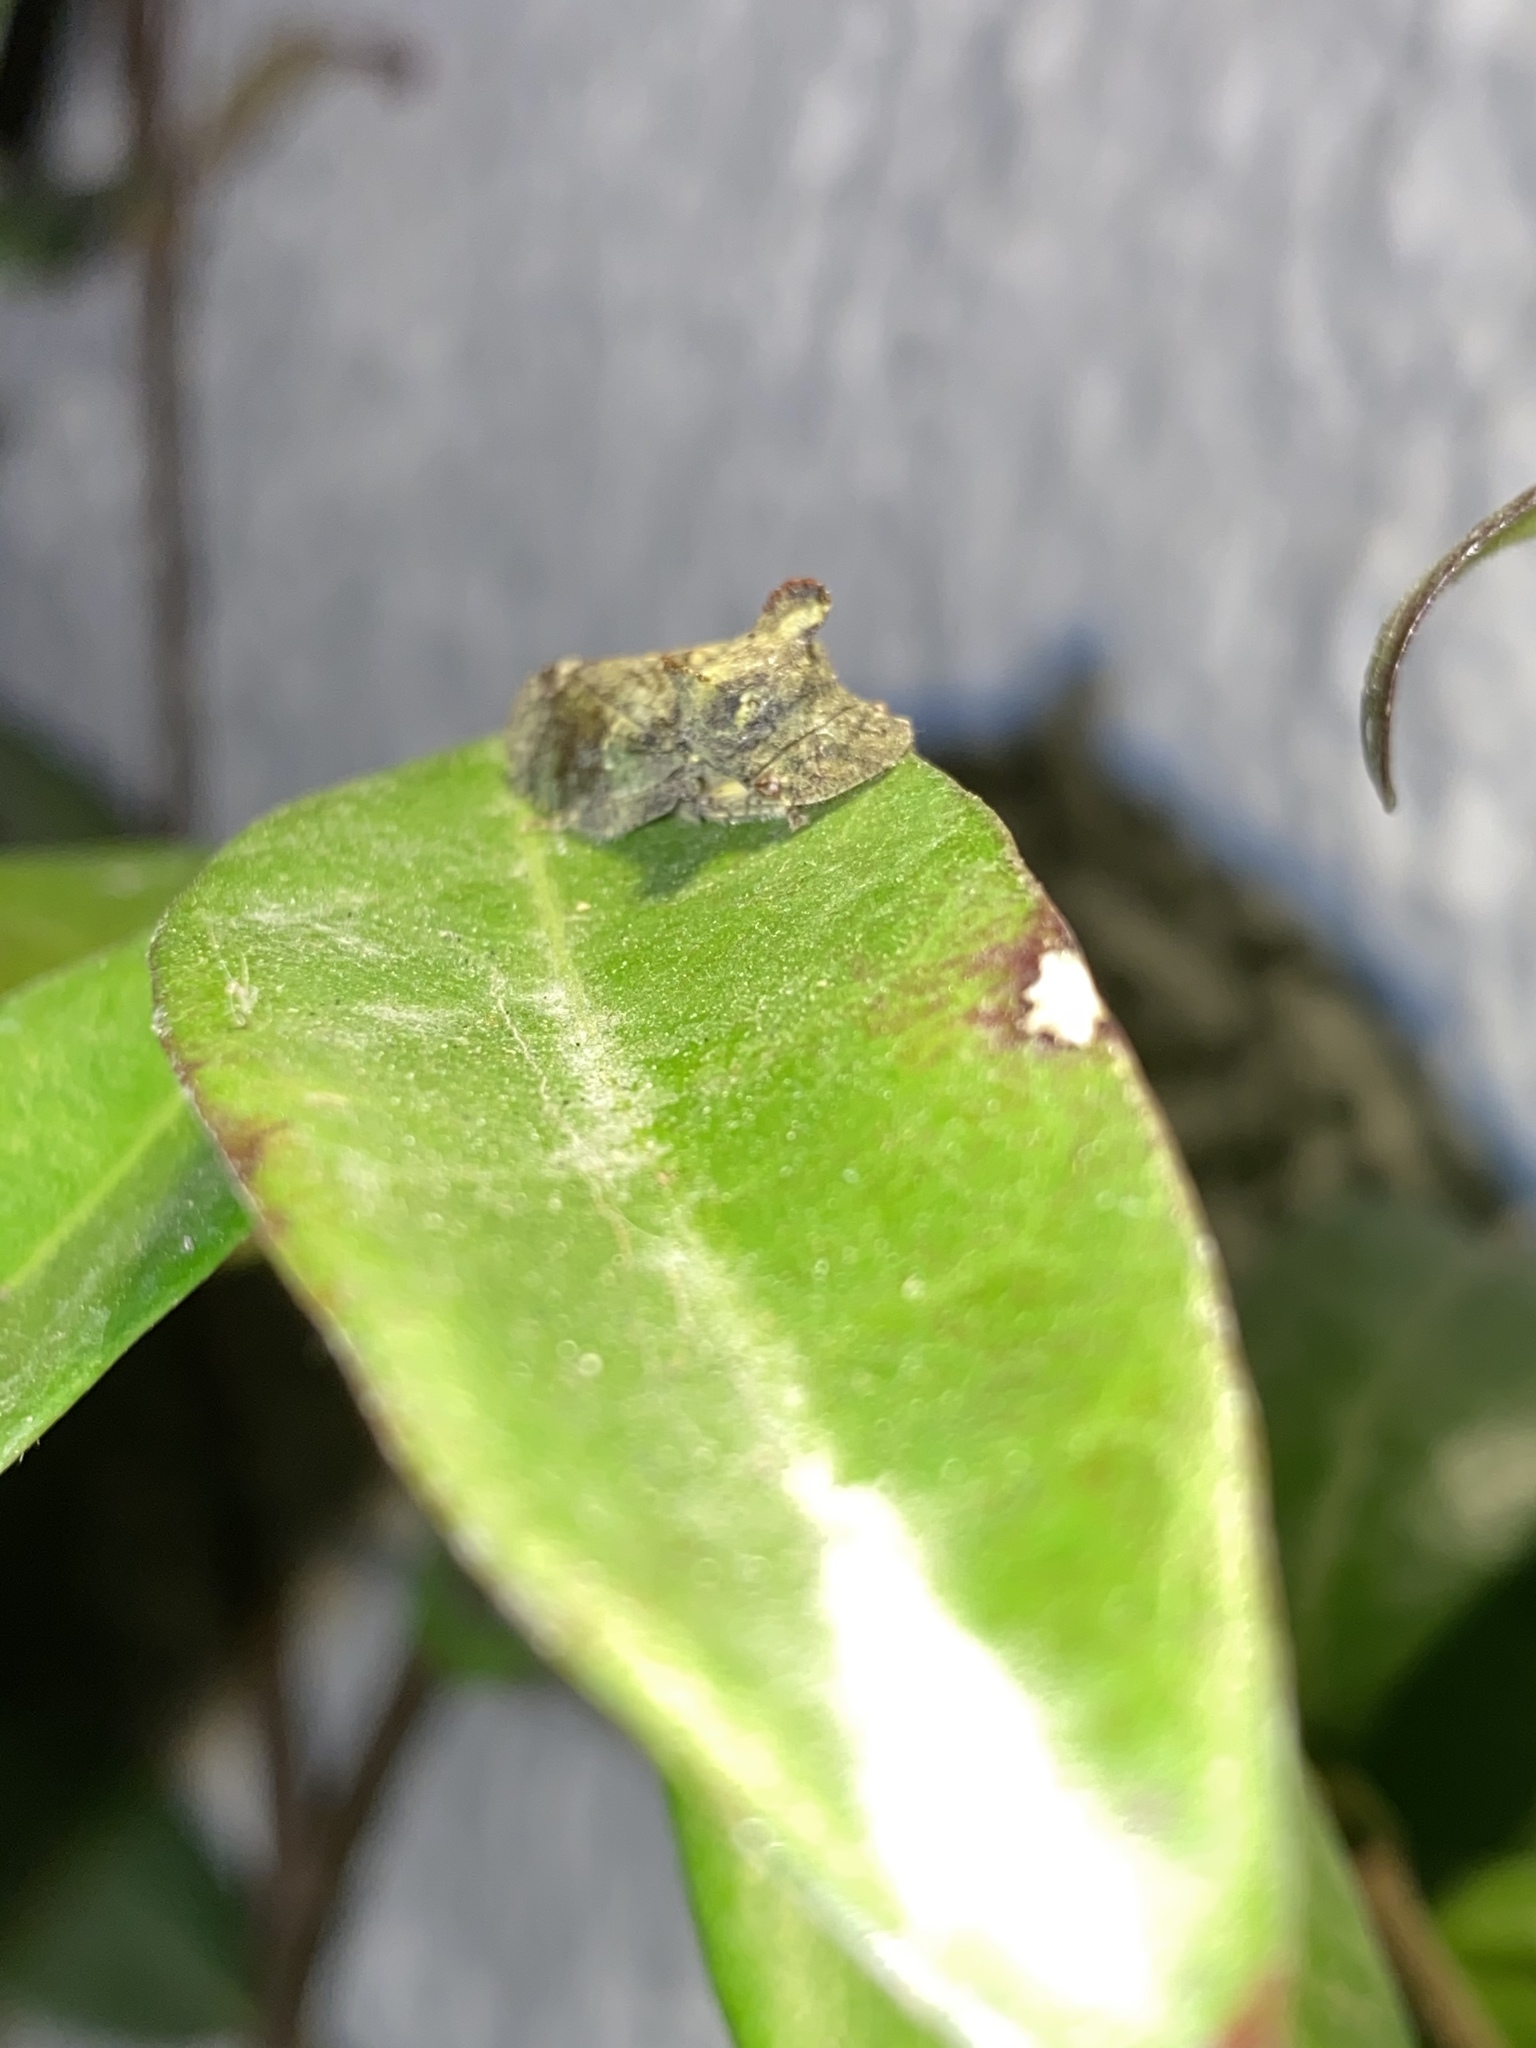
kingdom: Animalia
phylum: Arthropoda
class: Insecta
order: Hemiptera
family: Cicadellidae
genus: Ledra
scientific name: Ledra aurita
